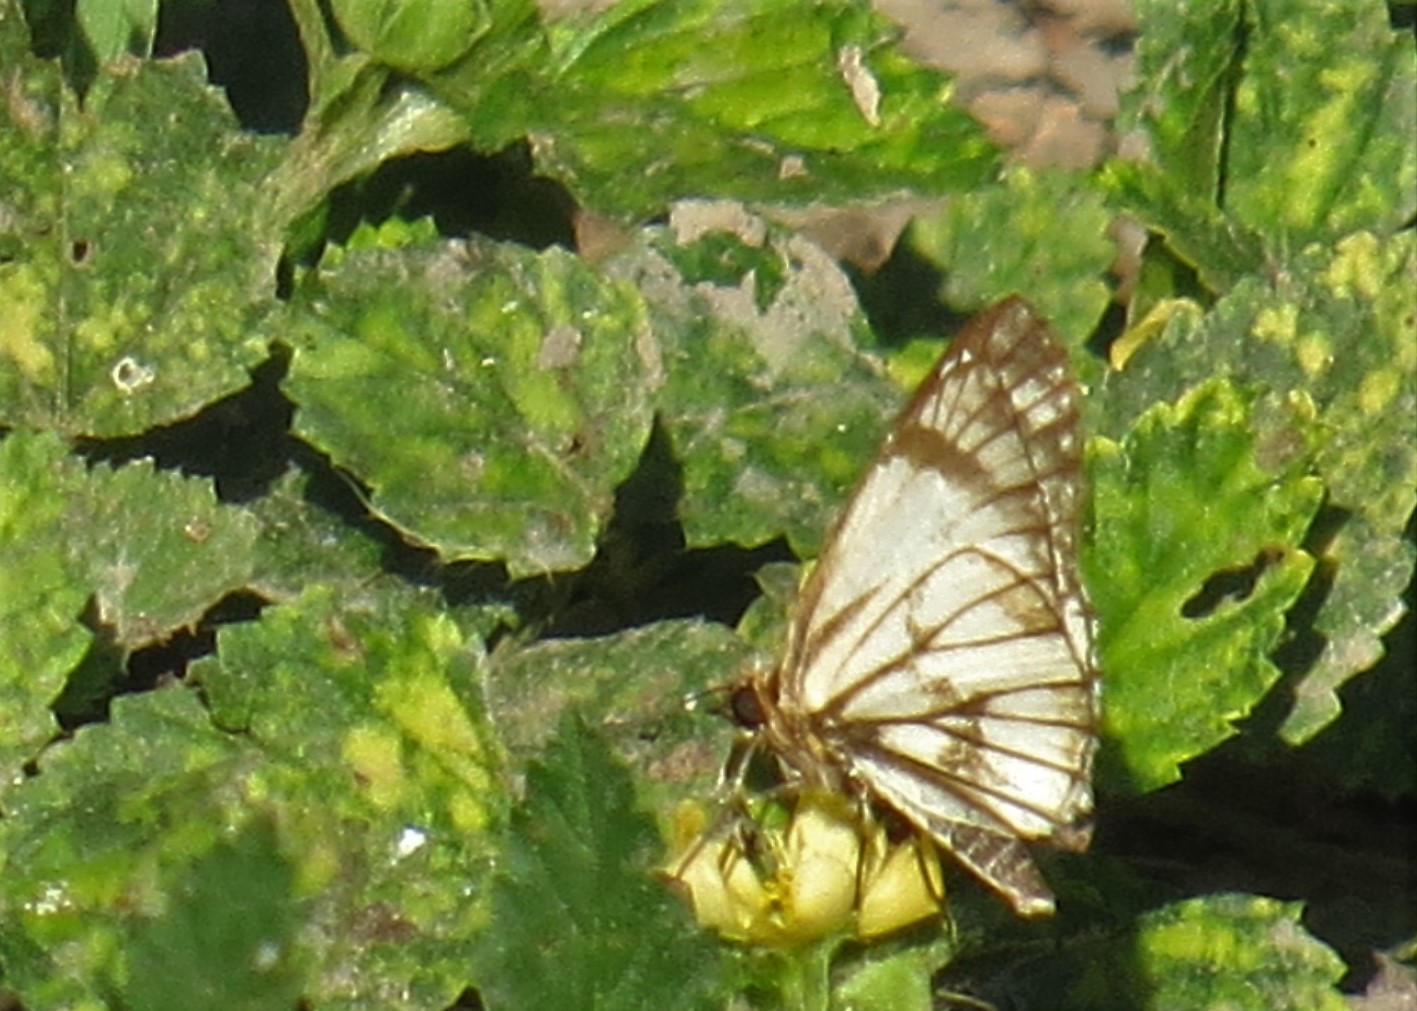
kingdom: Animalia
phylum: Arthropoda
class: Insecta
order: Lepidoptera
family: Hesperiidae
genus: Heliopetes
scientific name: Heliopetes alana
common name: Alana white-skipper
